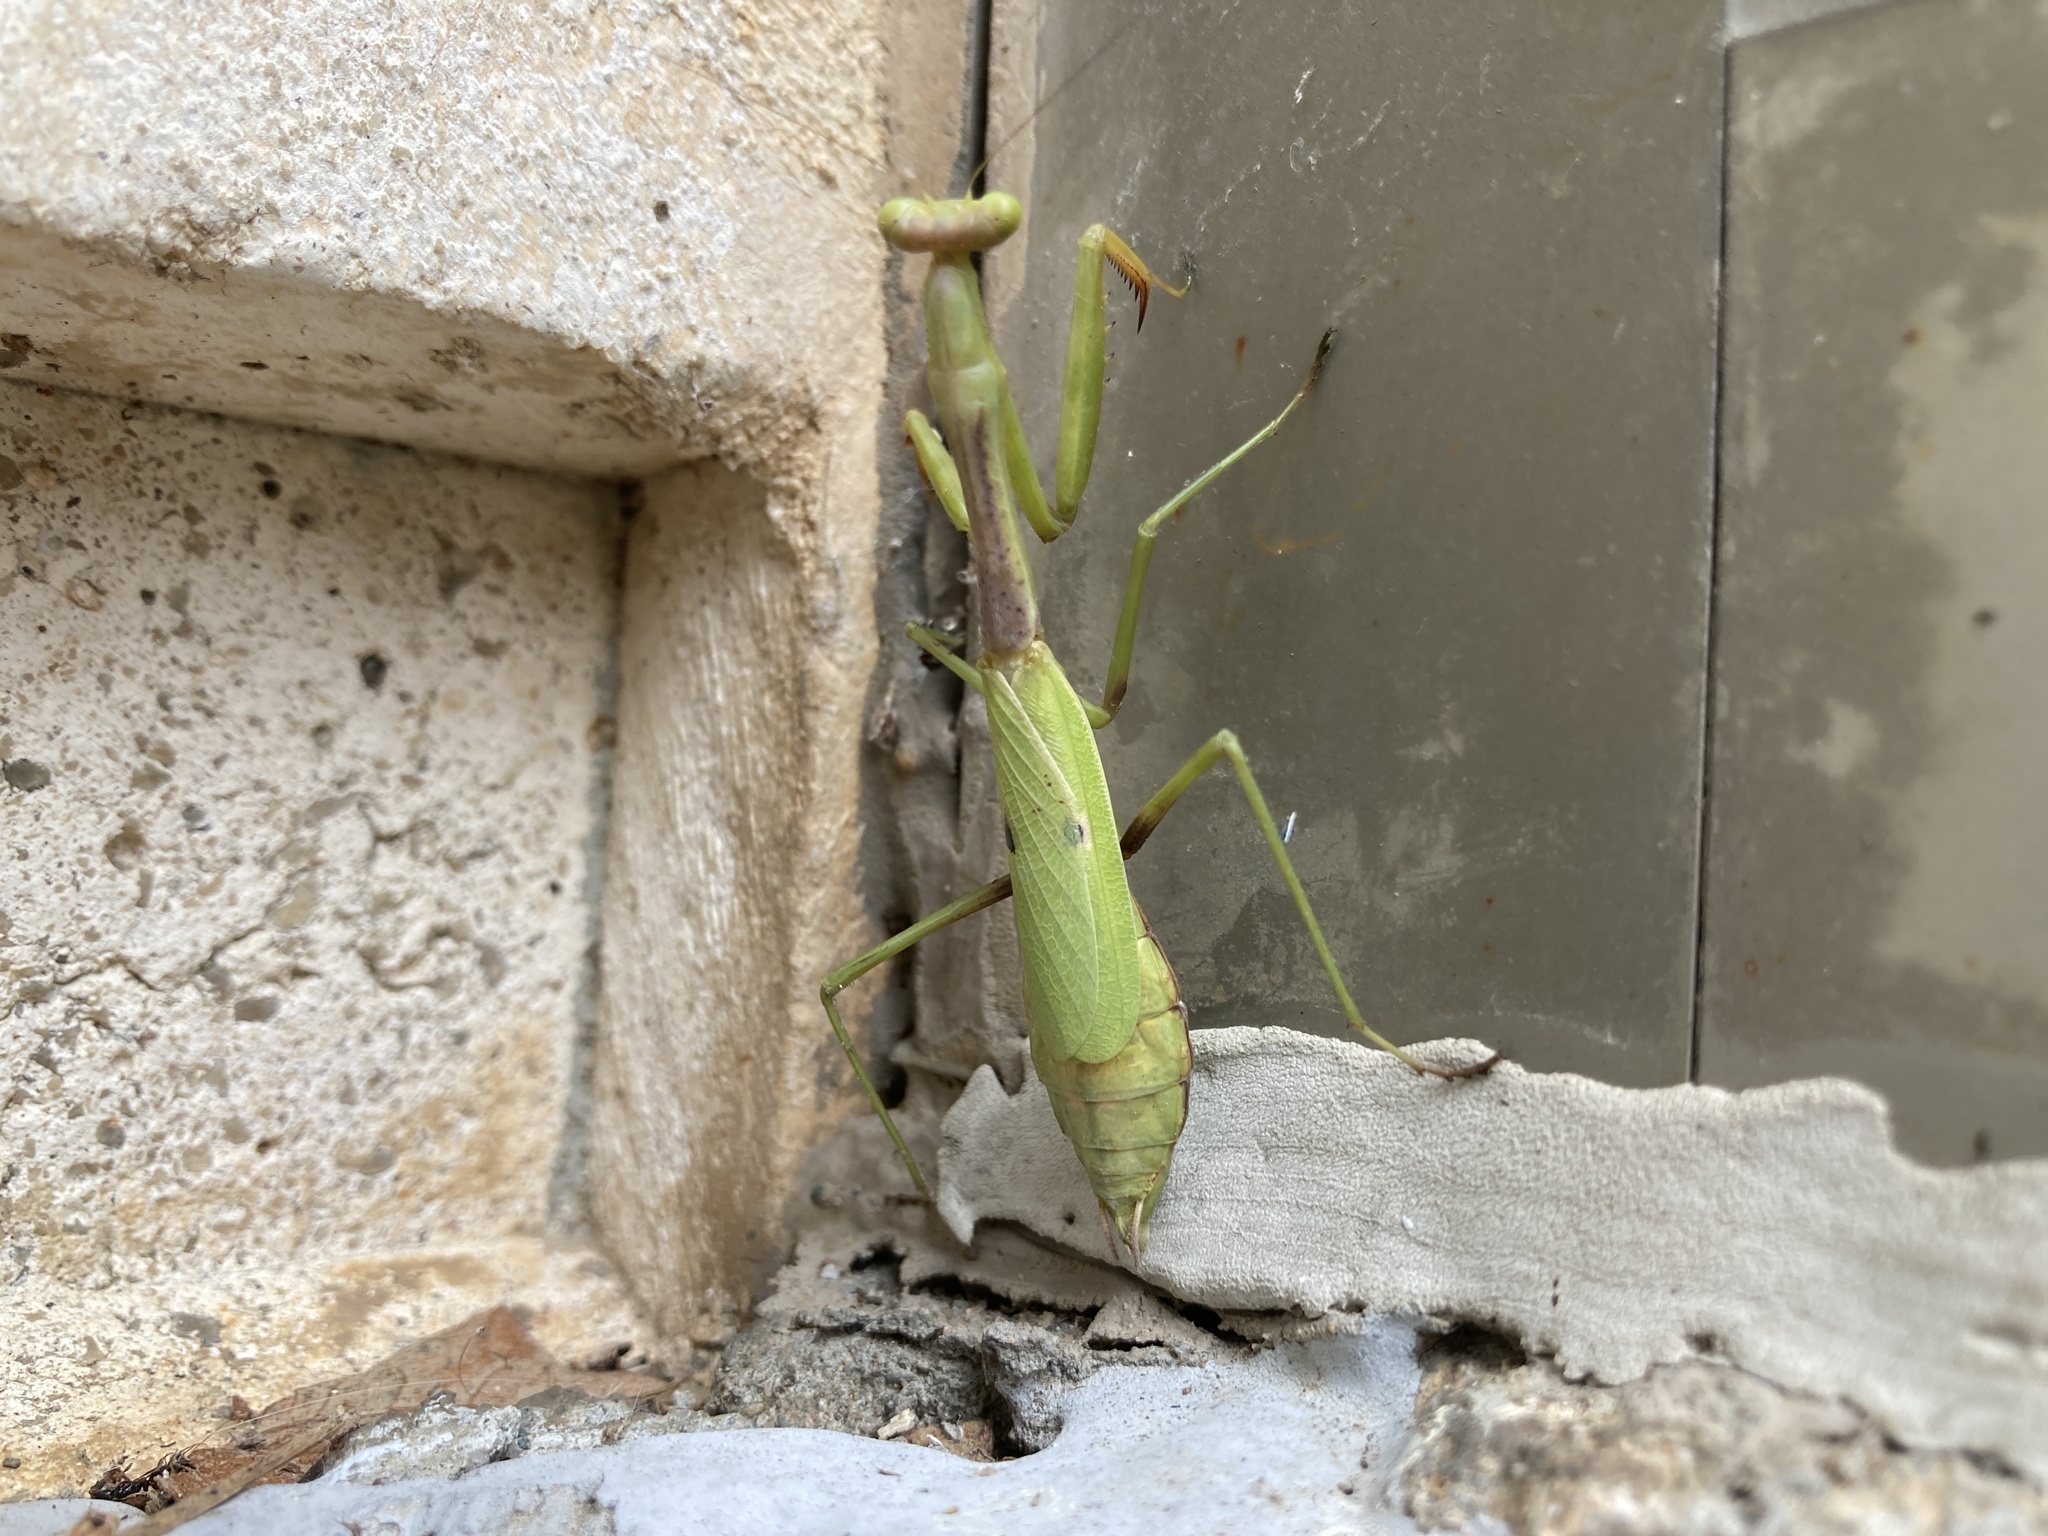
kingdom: Animalia
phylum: Arthropoda
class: Insecta
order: Mantodea
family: Mantidae
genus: Stagmomantis
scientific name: Stagmomantis carolina
